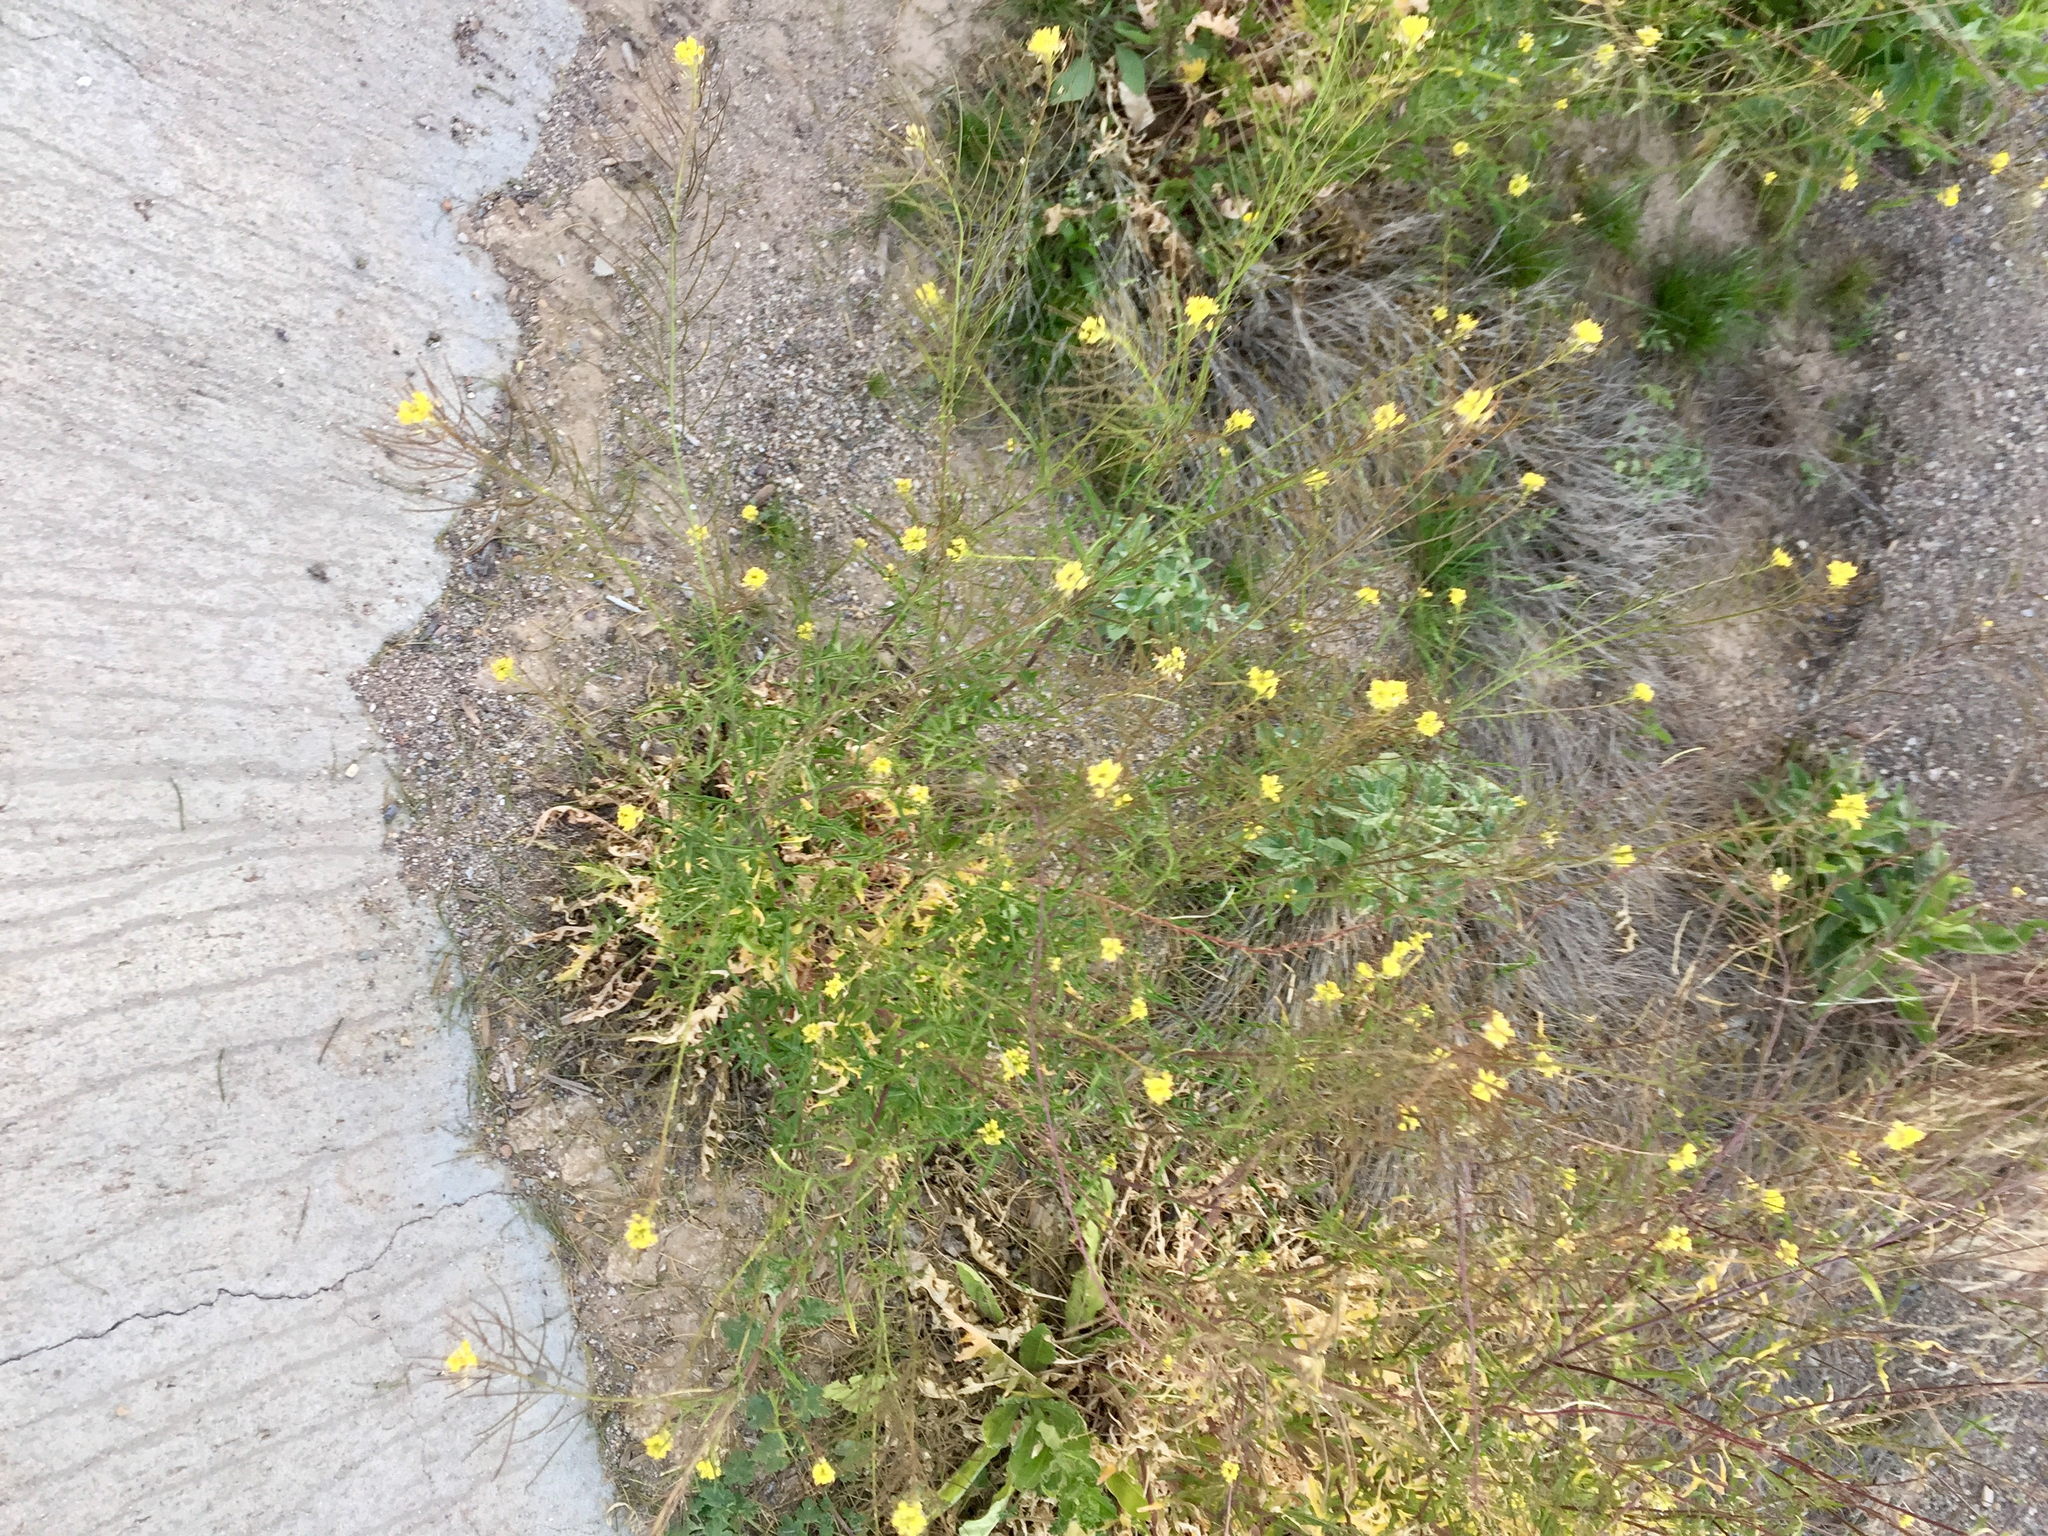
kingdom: Plantae
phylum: Tracheophyta
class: Magnoliopsida
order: Brassicales
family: Brassicaceae
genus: Sisymbrium
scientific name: Sisymbrium irio
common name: London rocket
